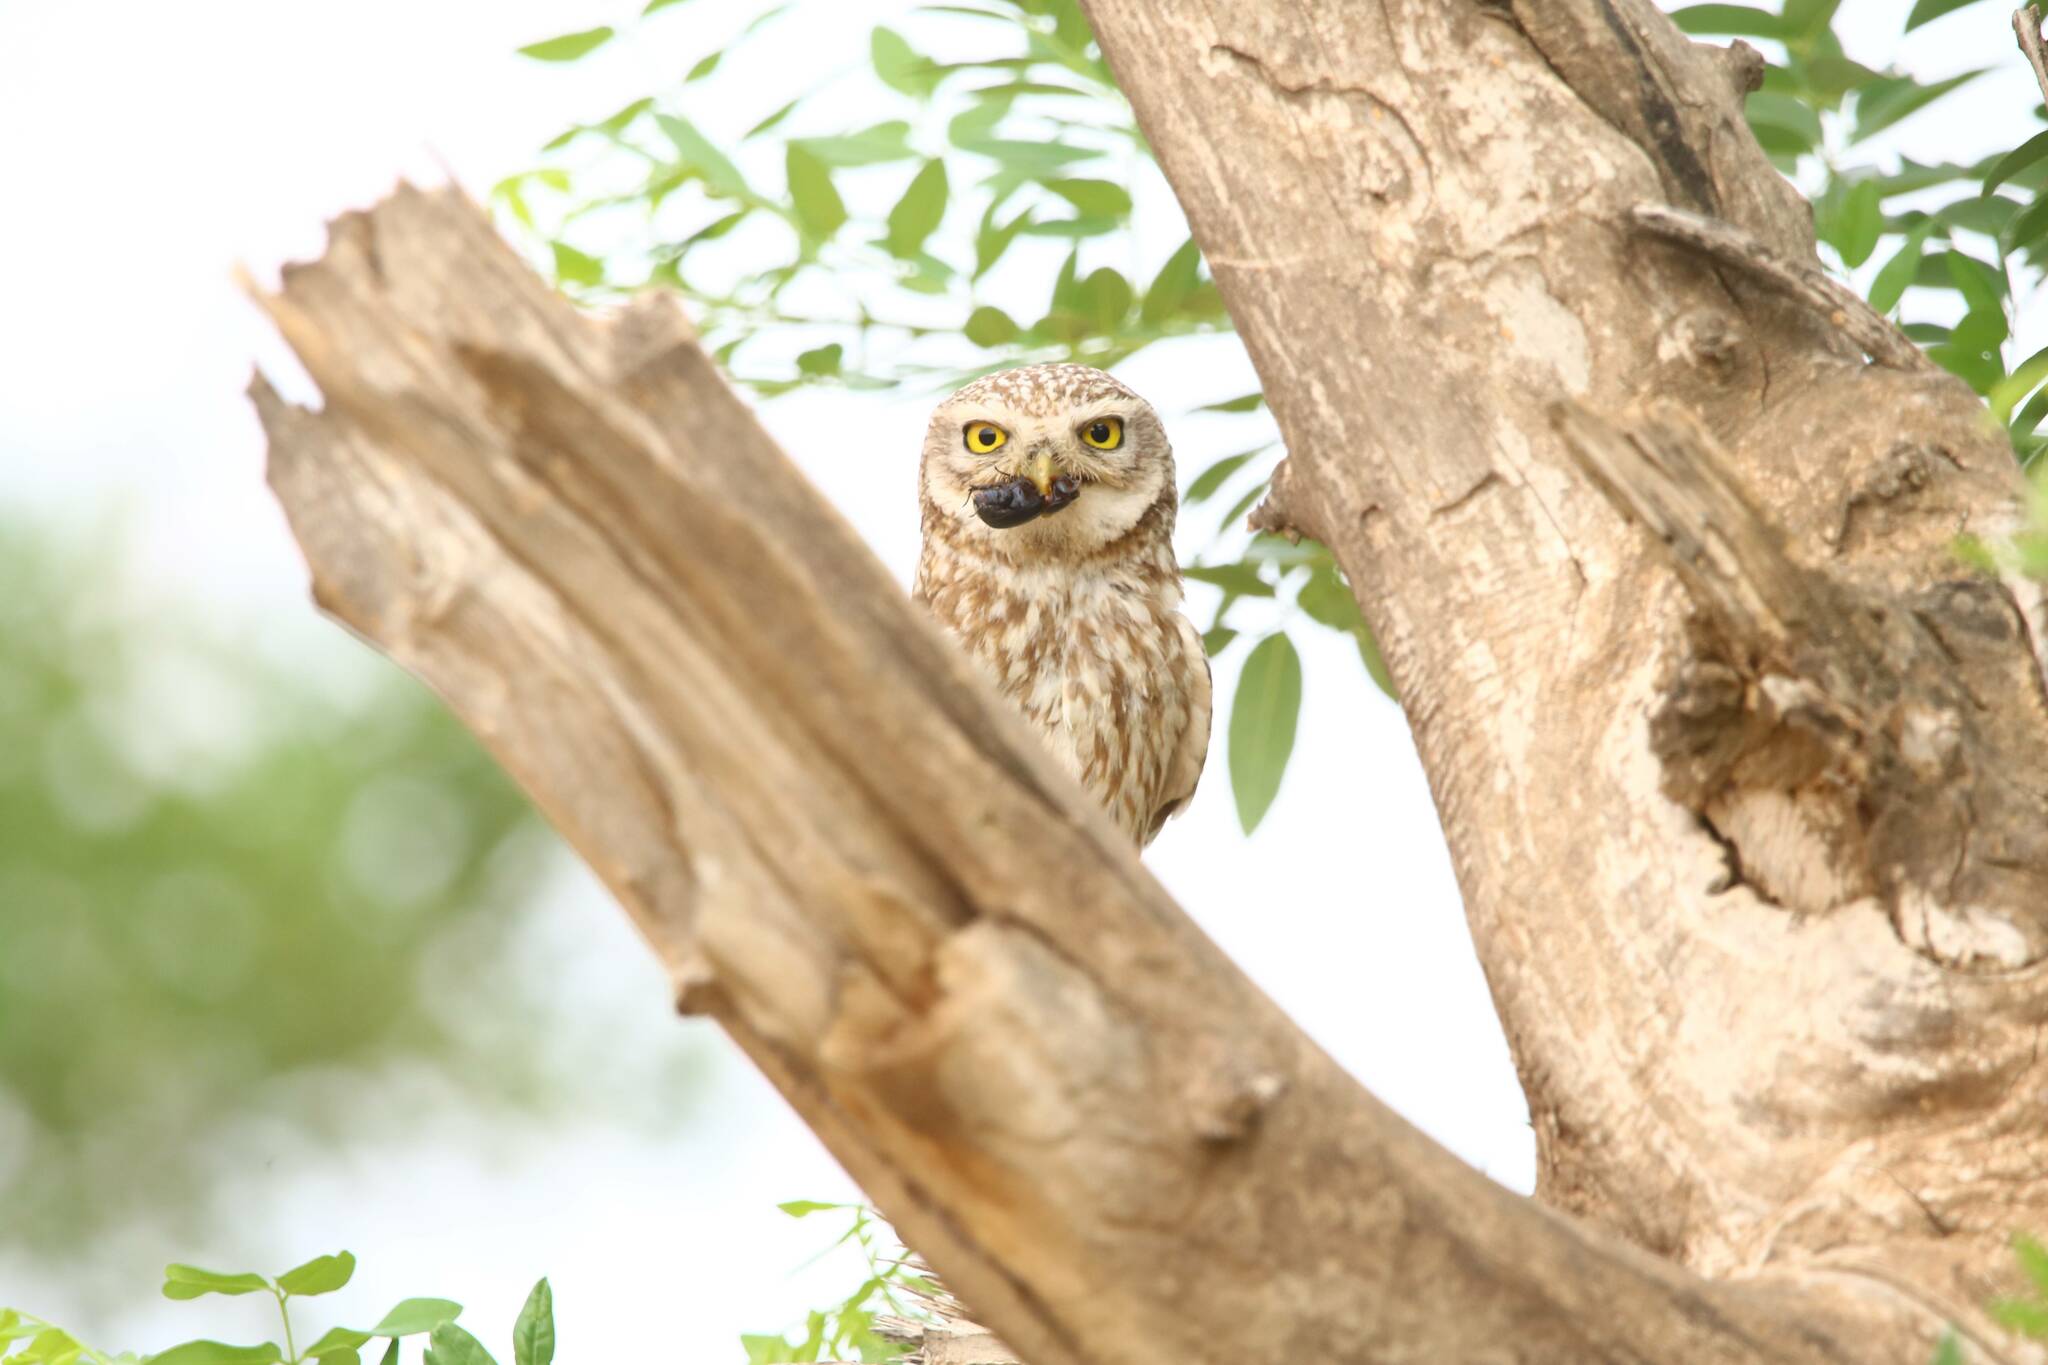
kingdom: Animalia
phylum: Chordata
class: Aves
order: Strigiformes
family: Strigidae
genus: Athene
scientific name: Athene noctua
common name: Little owl
